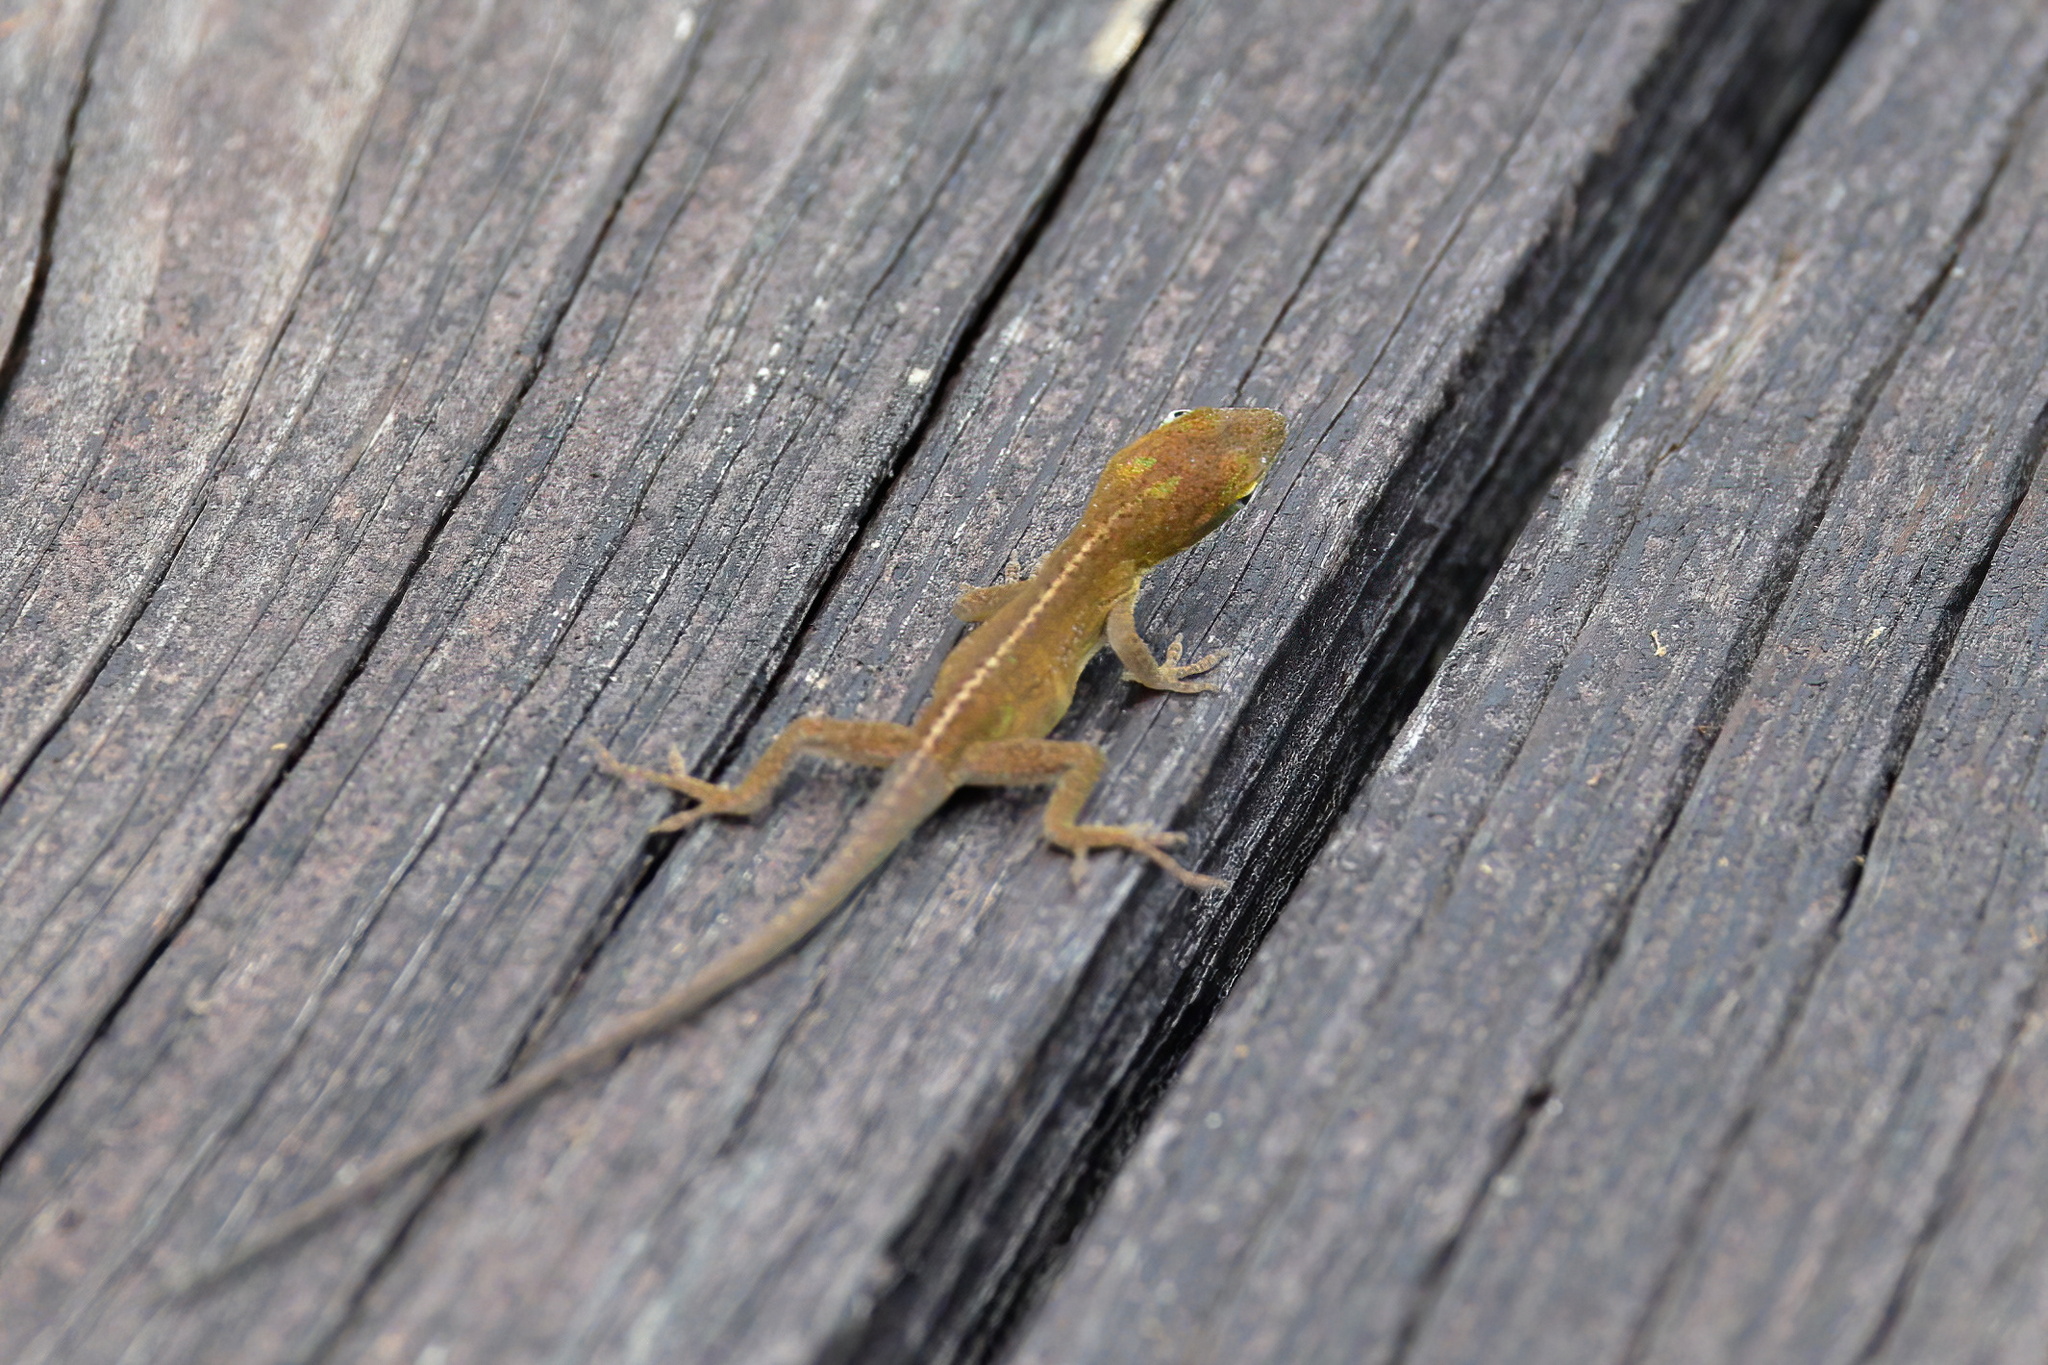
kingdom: Animalia
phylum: Chordata
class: Squamata
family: Dactyloidae
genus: Anolis
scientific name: Anolis carolinensis
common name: Green anole
